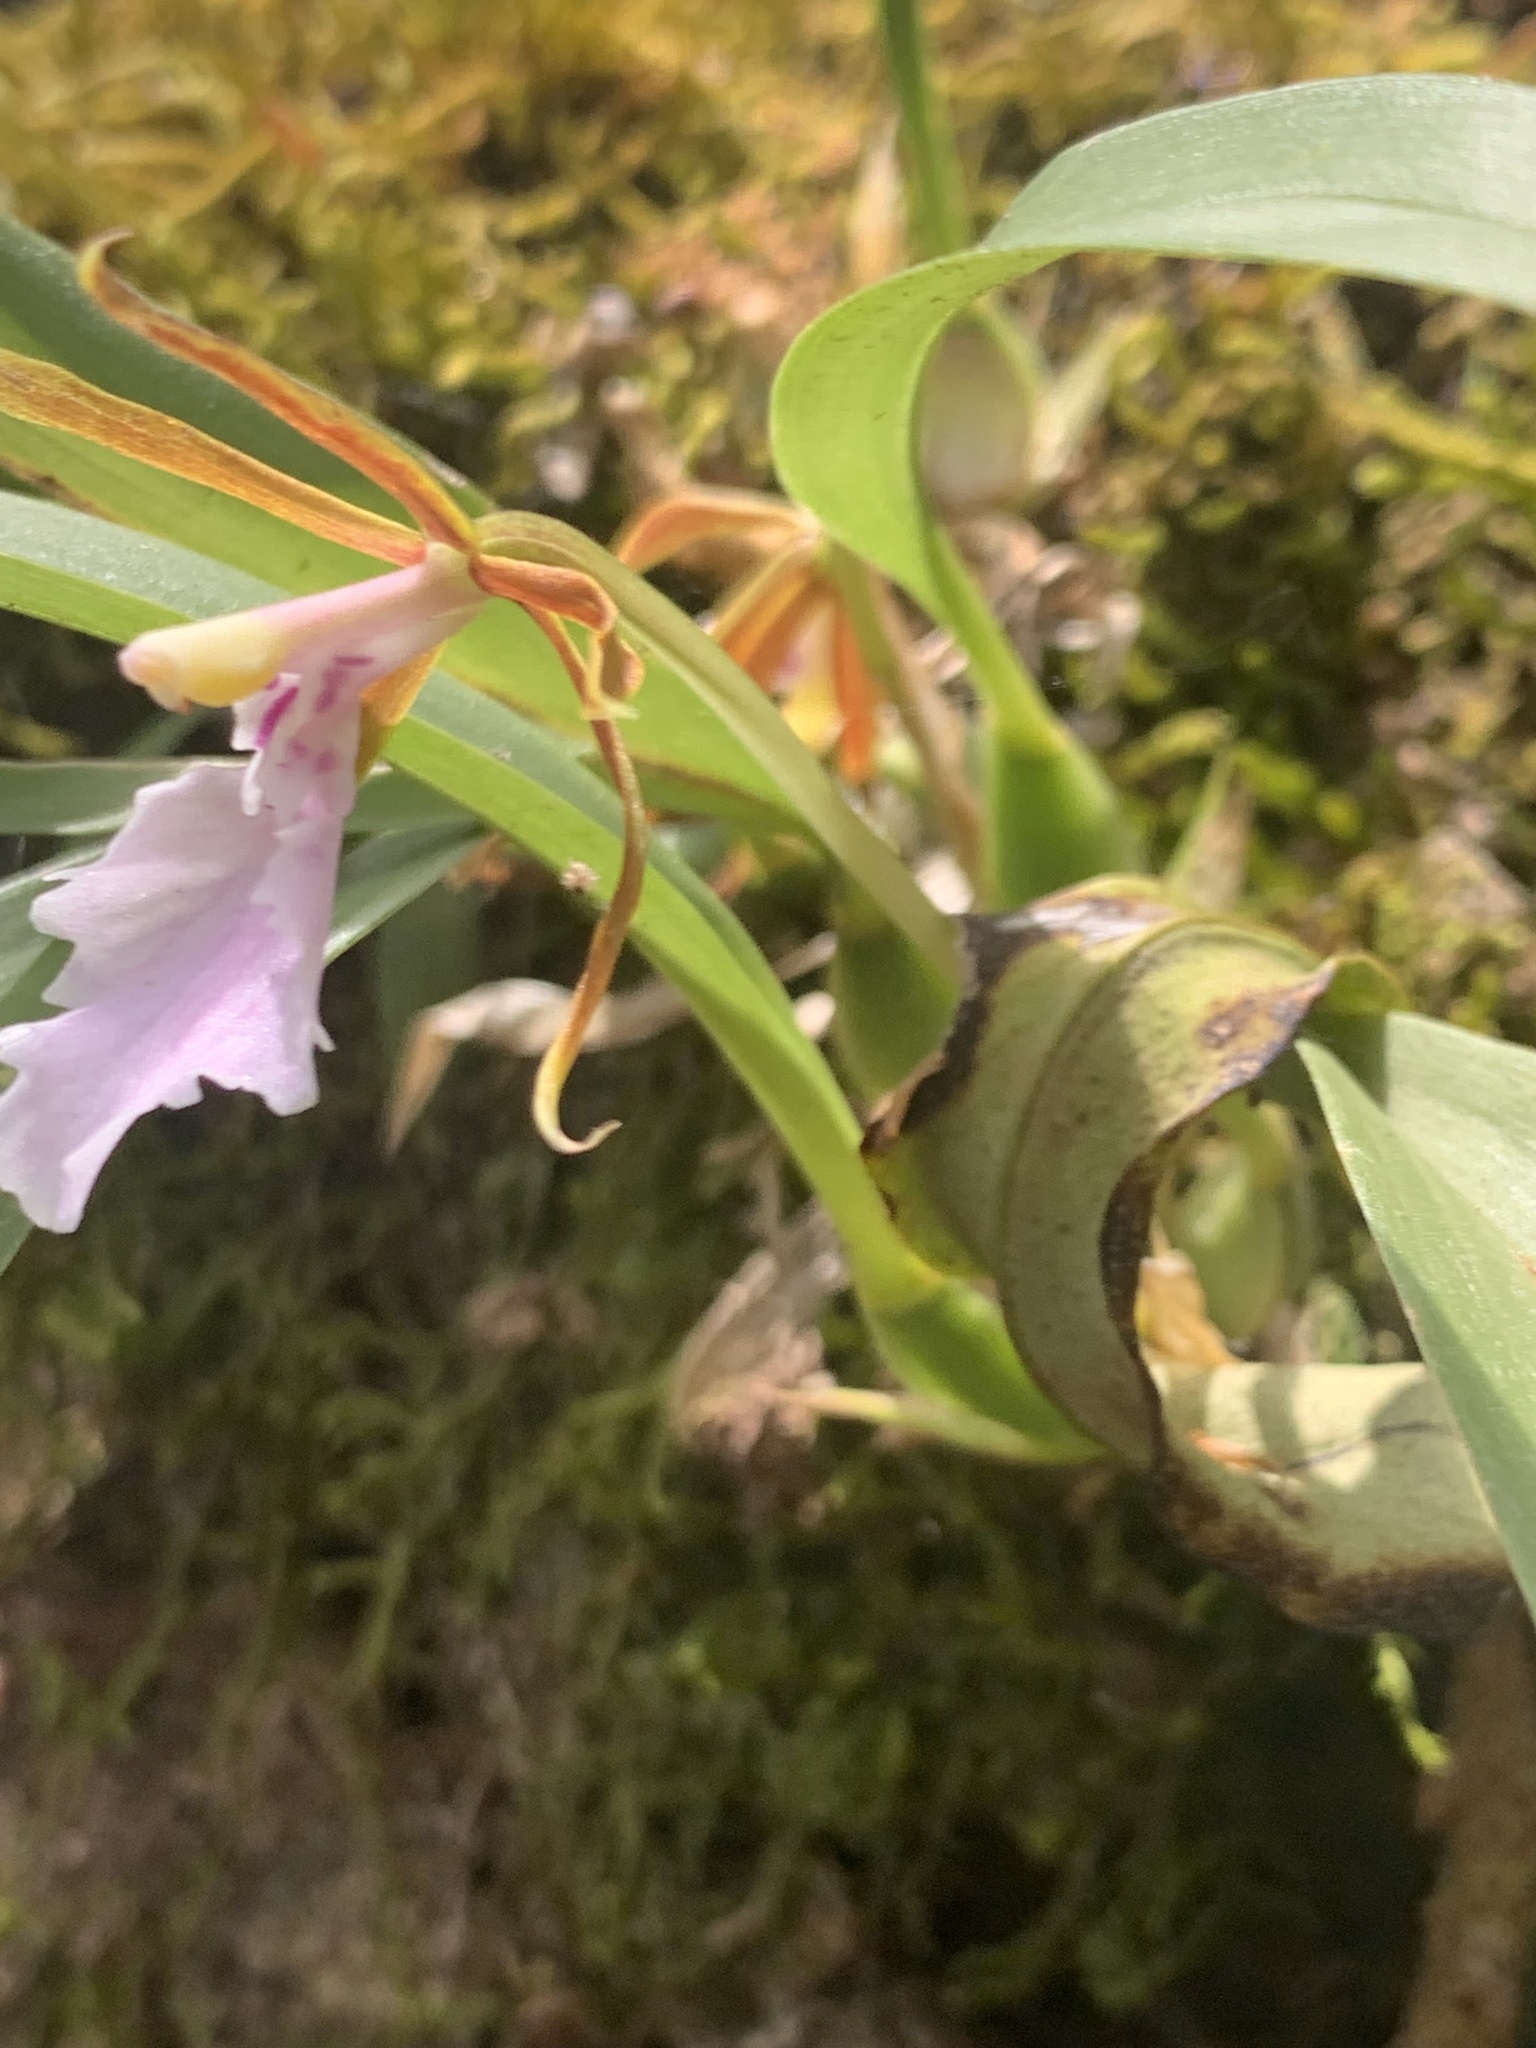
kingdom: Plantae
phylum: Tracheophyta
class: Liliopsida
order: Asparagales
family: Orchidaceae
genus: Rhynchostele
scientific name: Rhynchostele stellata
